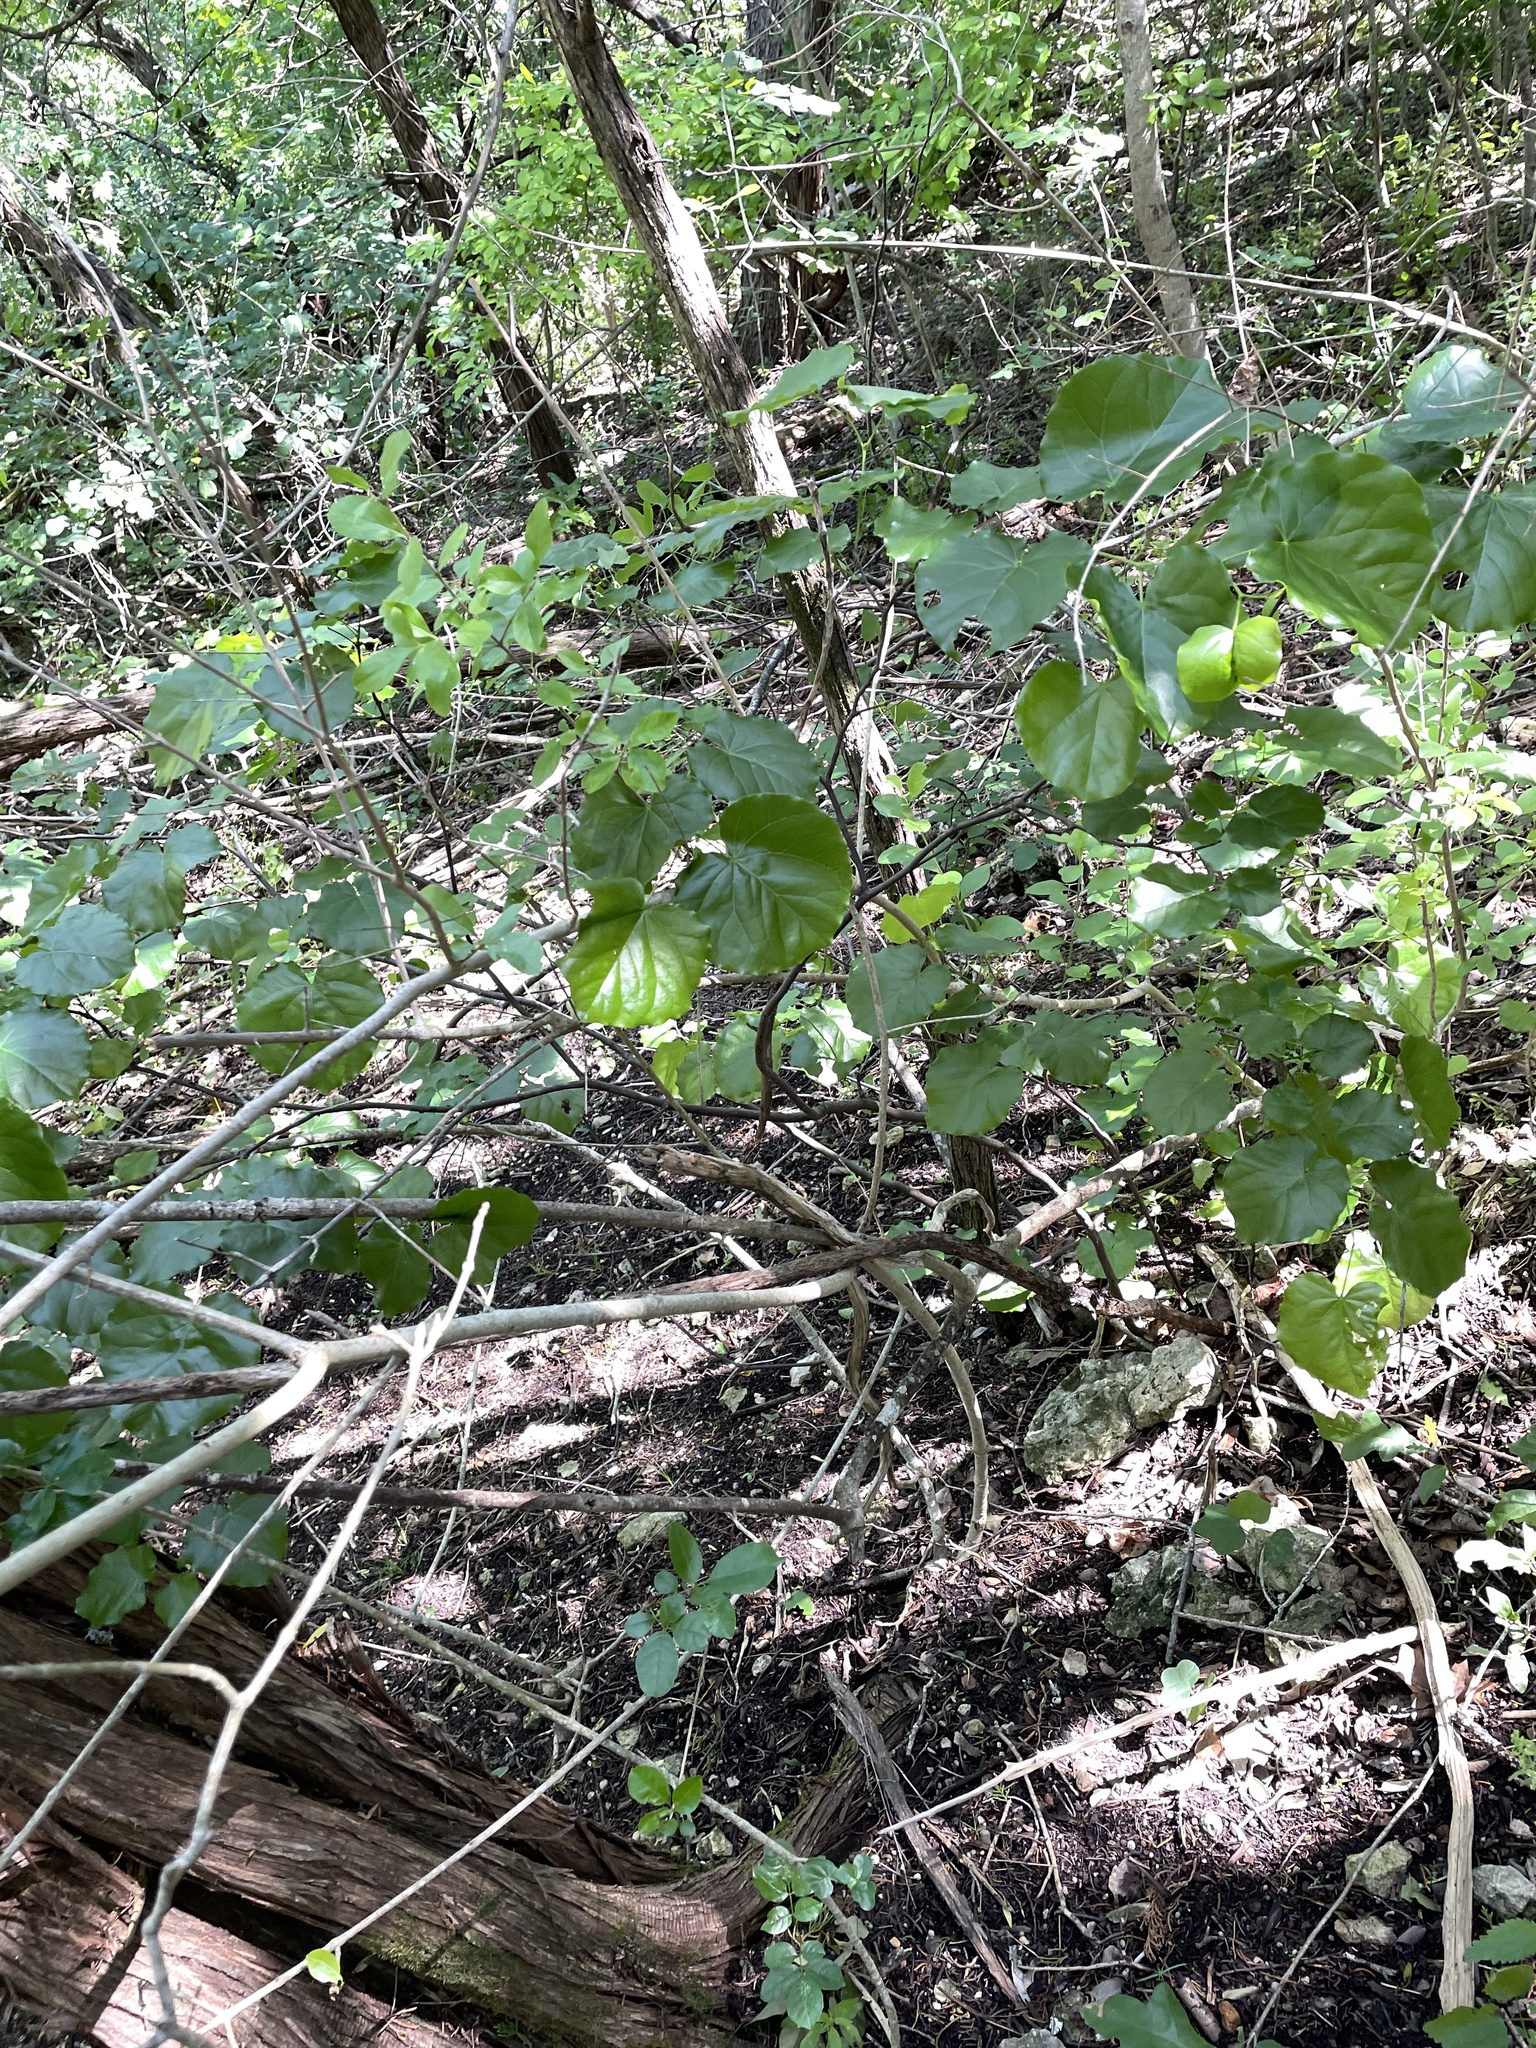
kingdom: Plantae
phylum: Tracheophyta
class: Magnoliopsida
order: Fabales
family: Fabaceae
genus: Cercis
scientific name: Cercis canadensis
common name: Eastern redbud
